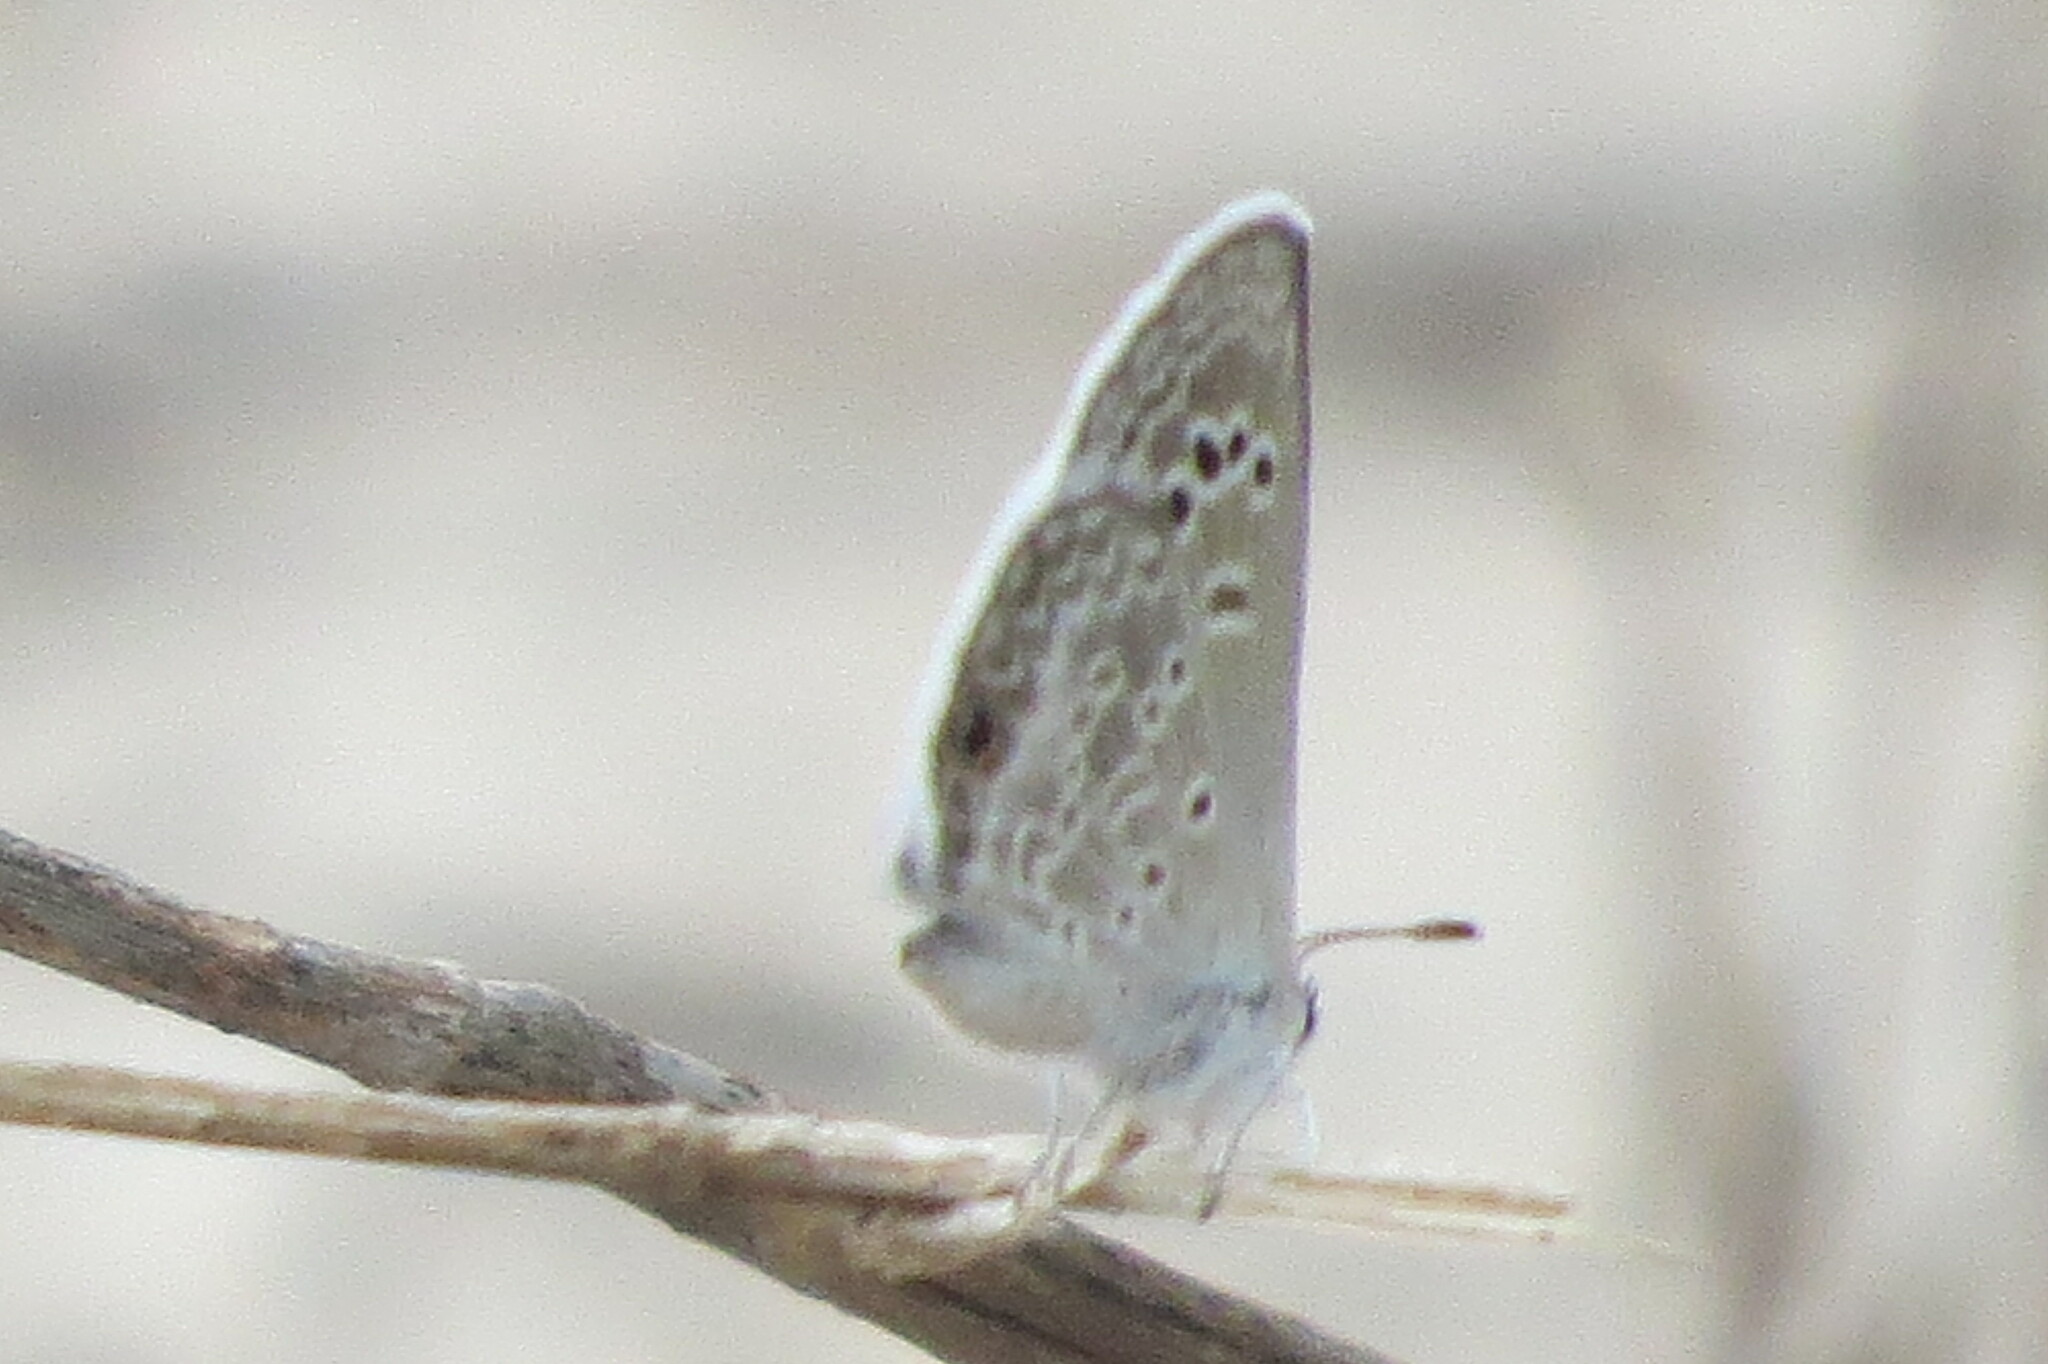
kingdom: Animalia
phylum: Arthropoda
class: Insecta
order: Lepidoptera
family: Lycaenidae
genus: Echinargus
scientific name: Echinargus isola
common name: Reakirt's blue
